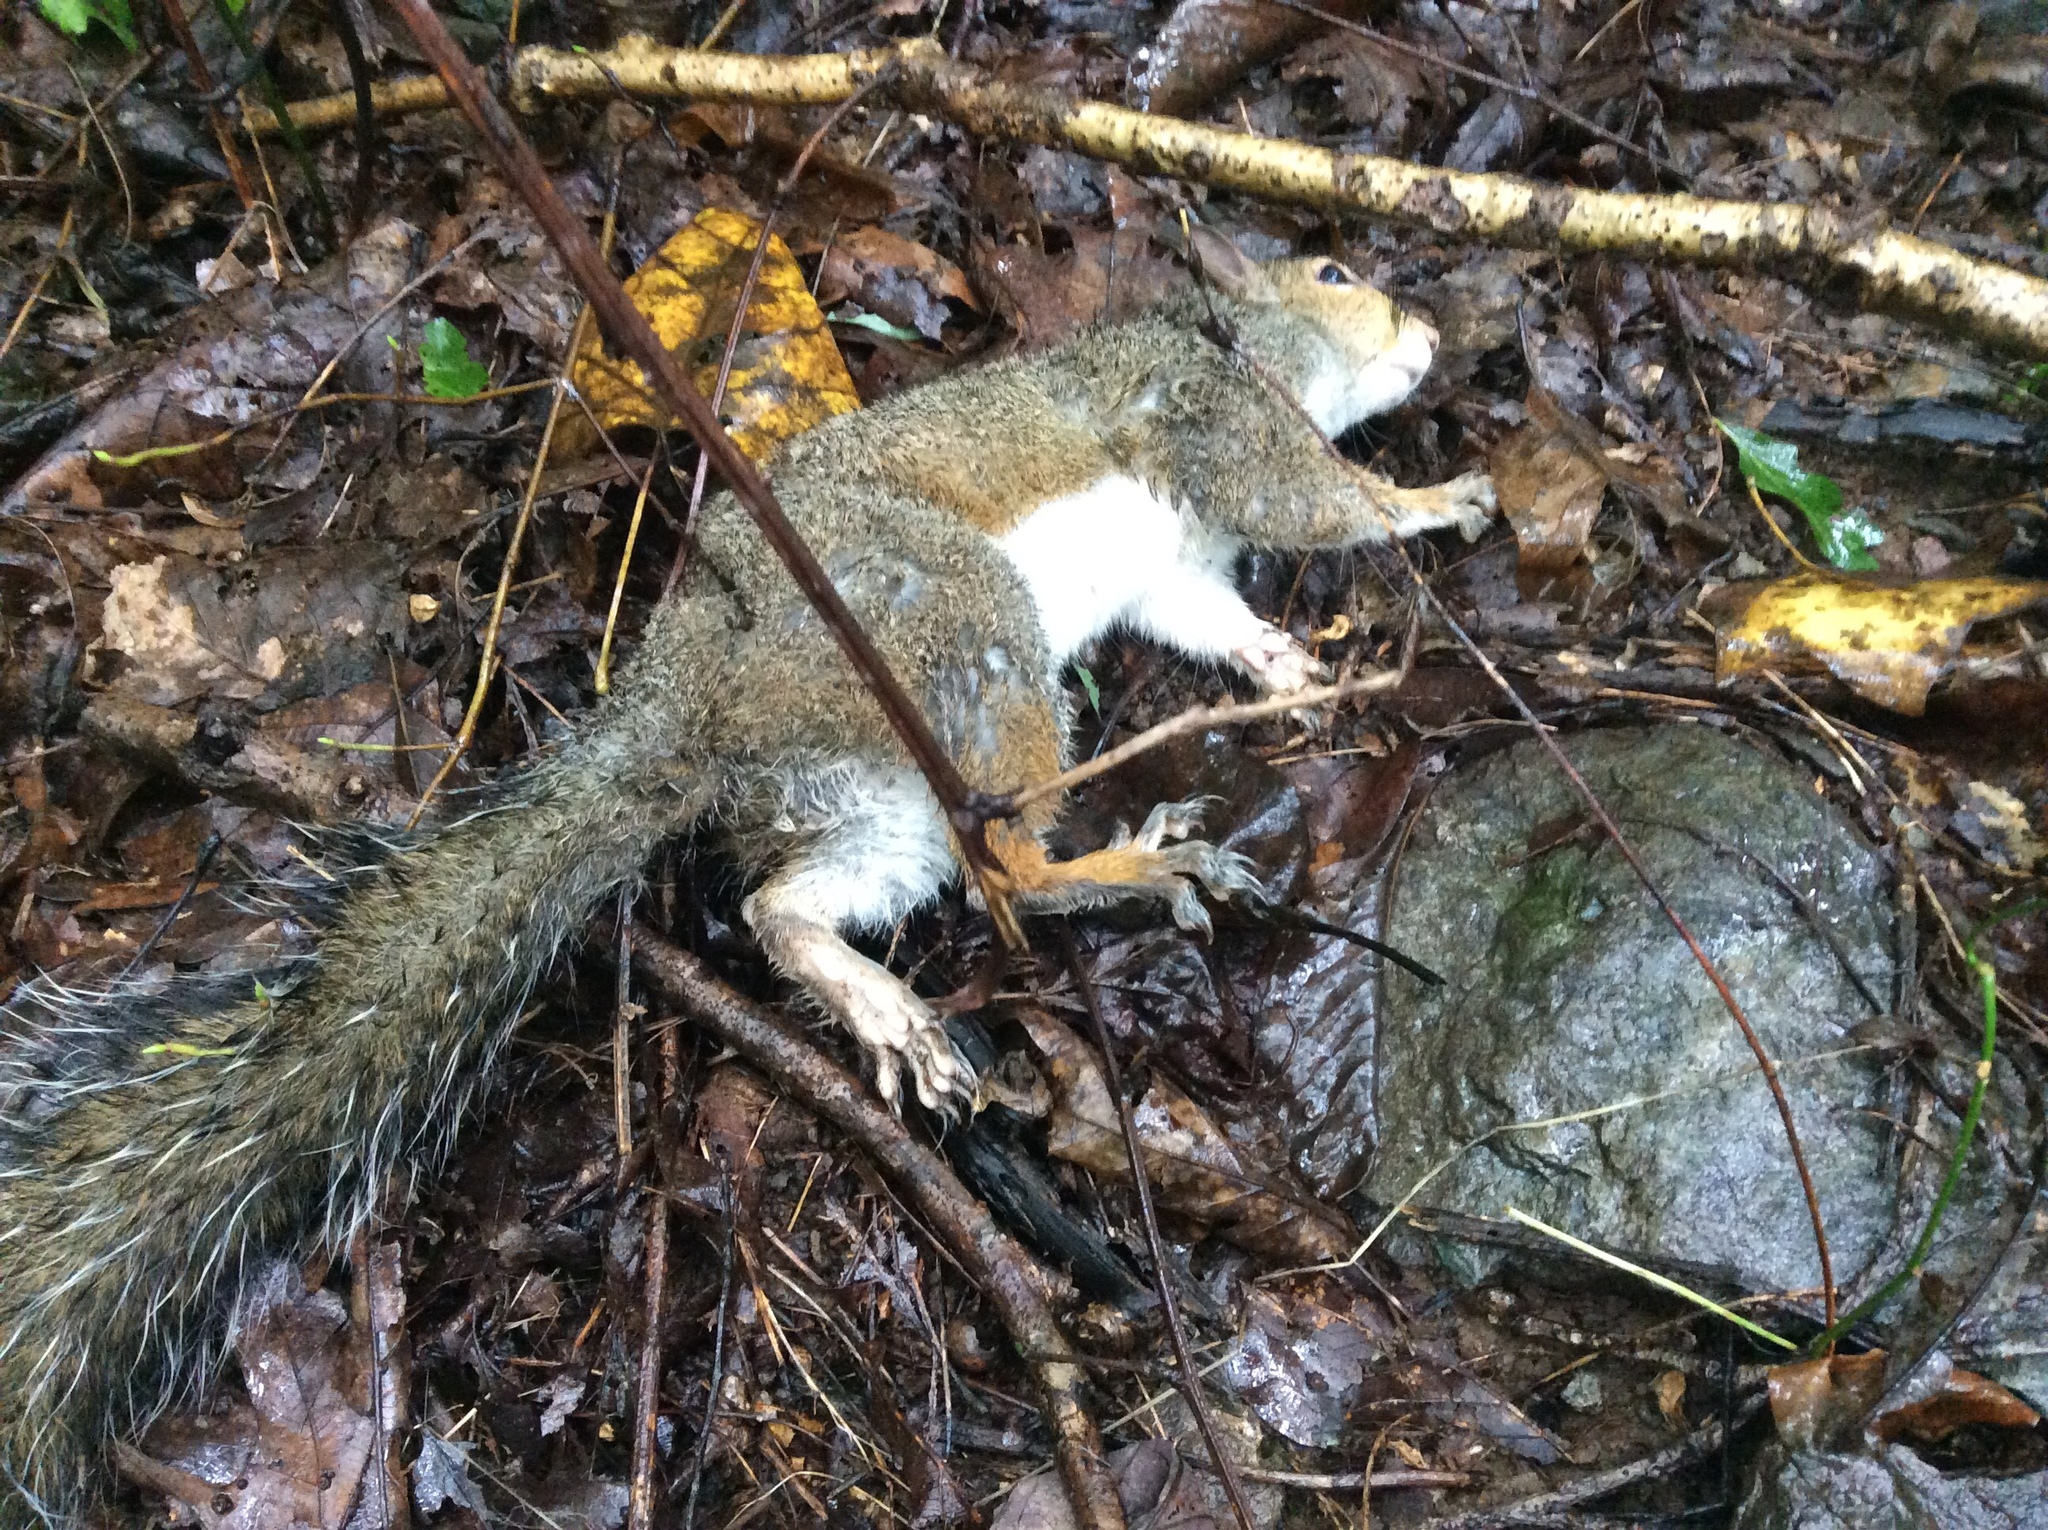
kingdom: Animalia
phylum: Chordata
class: Mammalia
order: Rodentia
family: Sciuridae
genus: Sciurus
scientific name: Sciurus carolinensis
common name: Eastern gray squirrel
